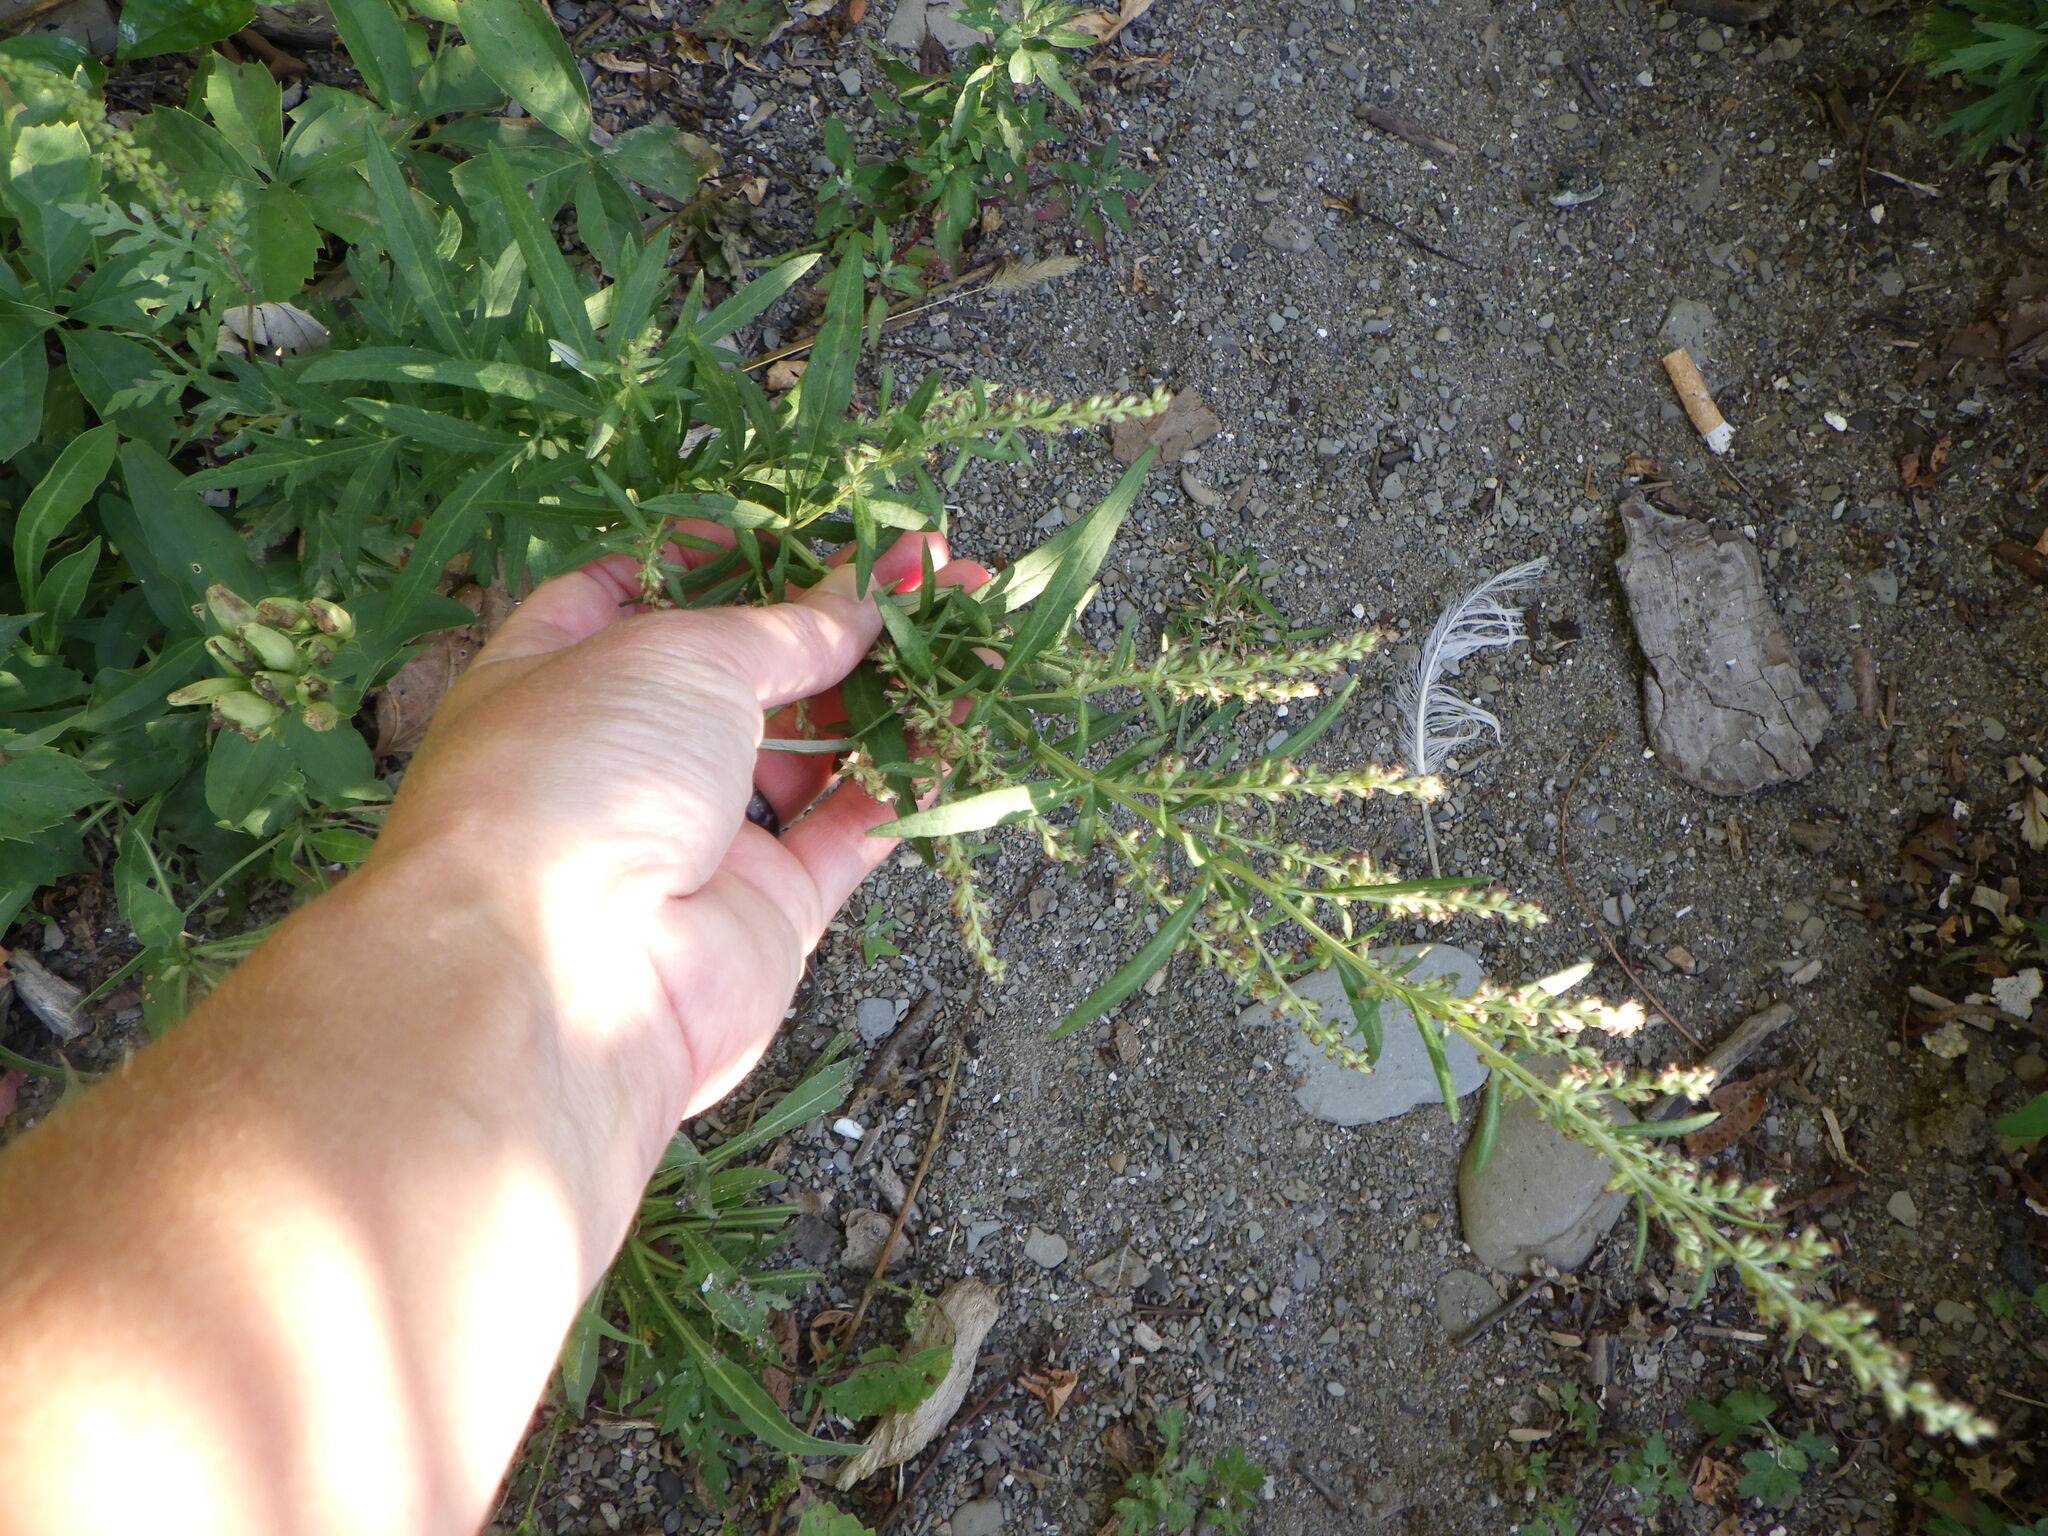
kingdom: Plantae
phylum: Tracheophyta
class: Magnoliopsida
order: Asterales
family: Asteraceae
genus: Artemisia
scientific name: Artemisia vulgaris
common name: Mugwort
